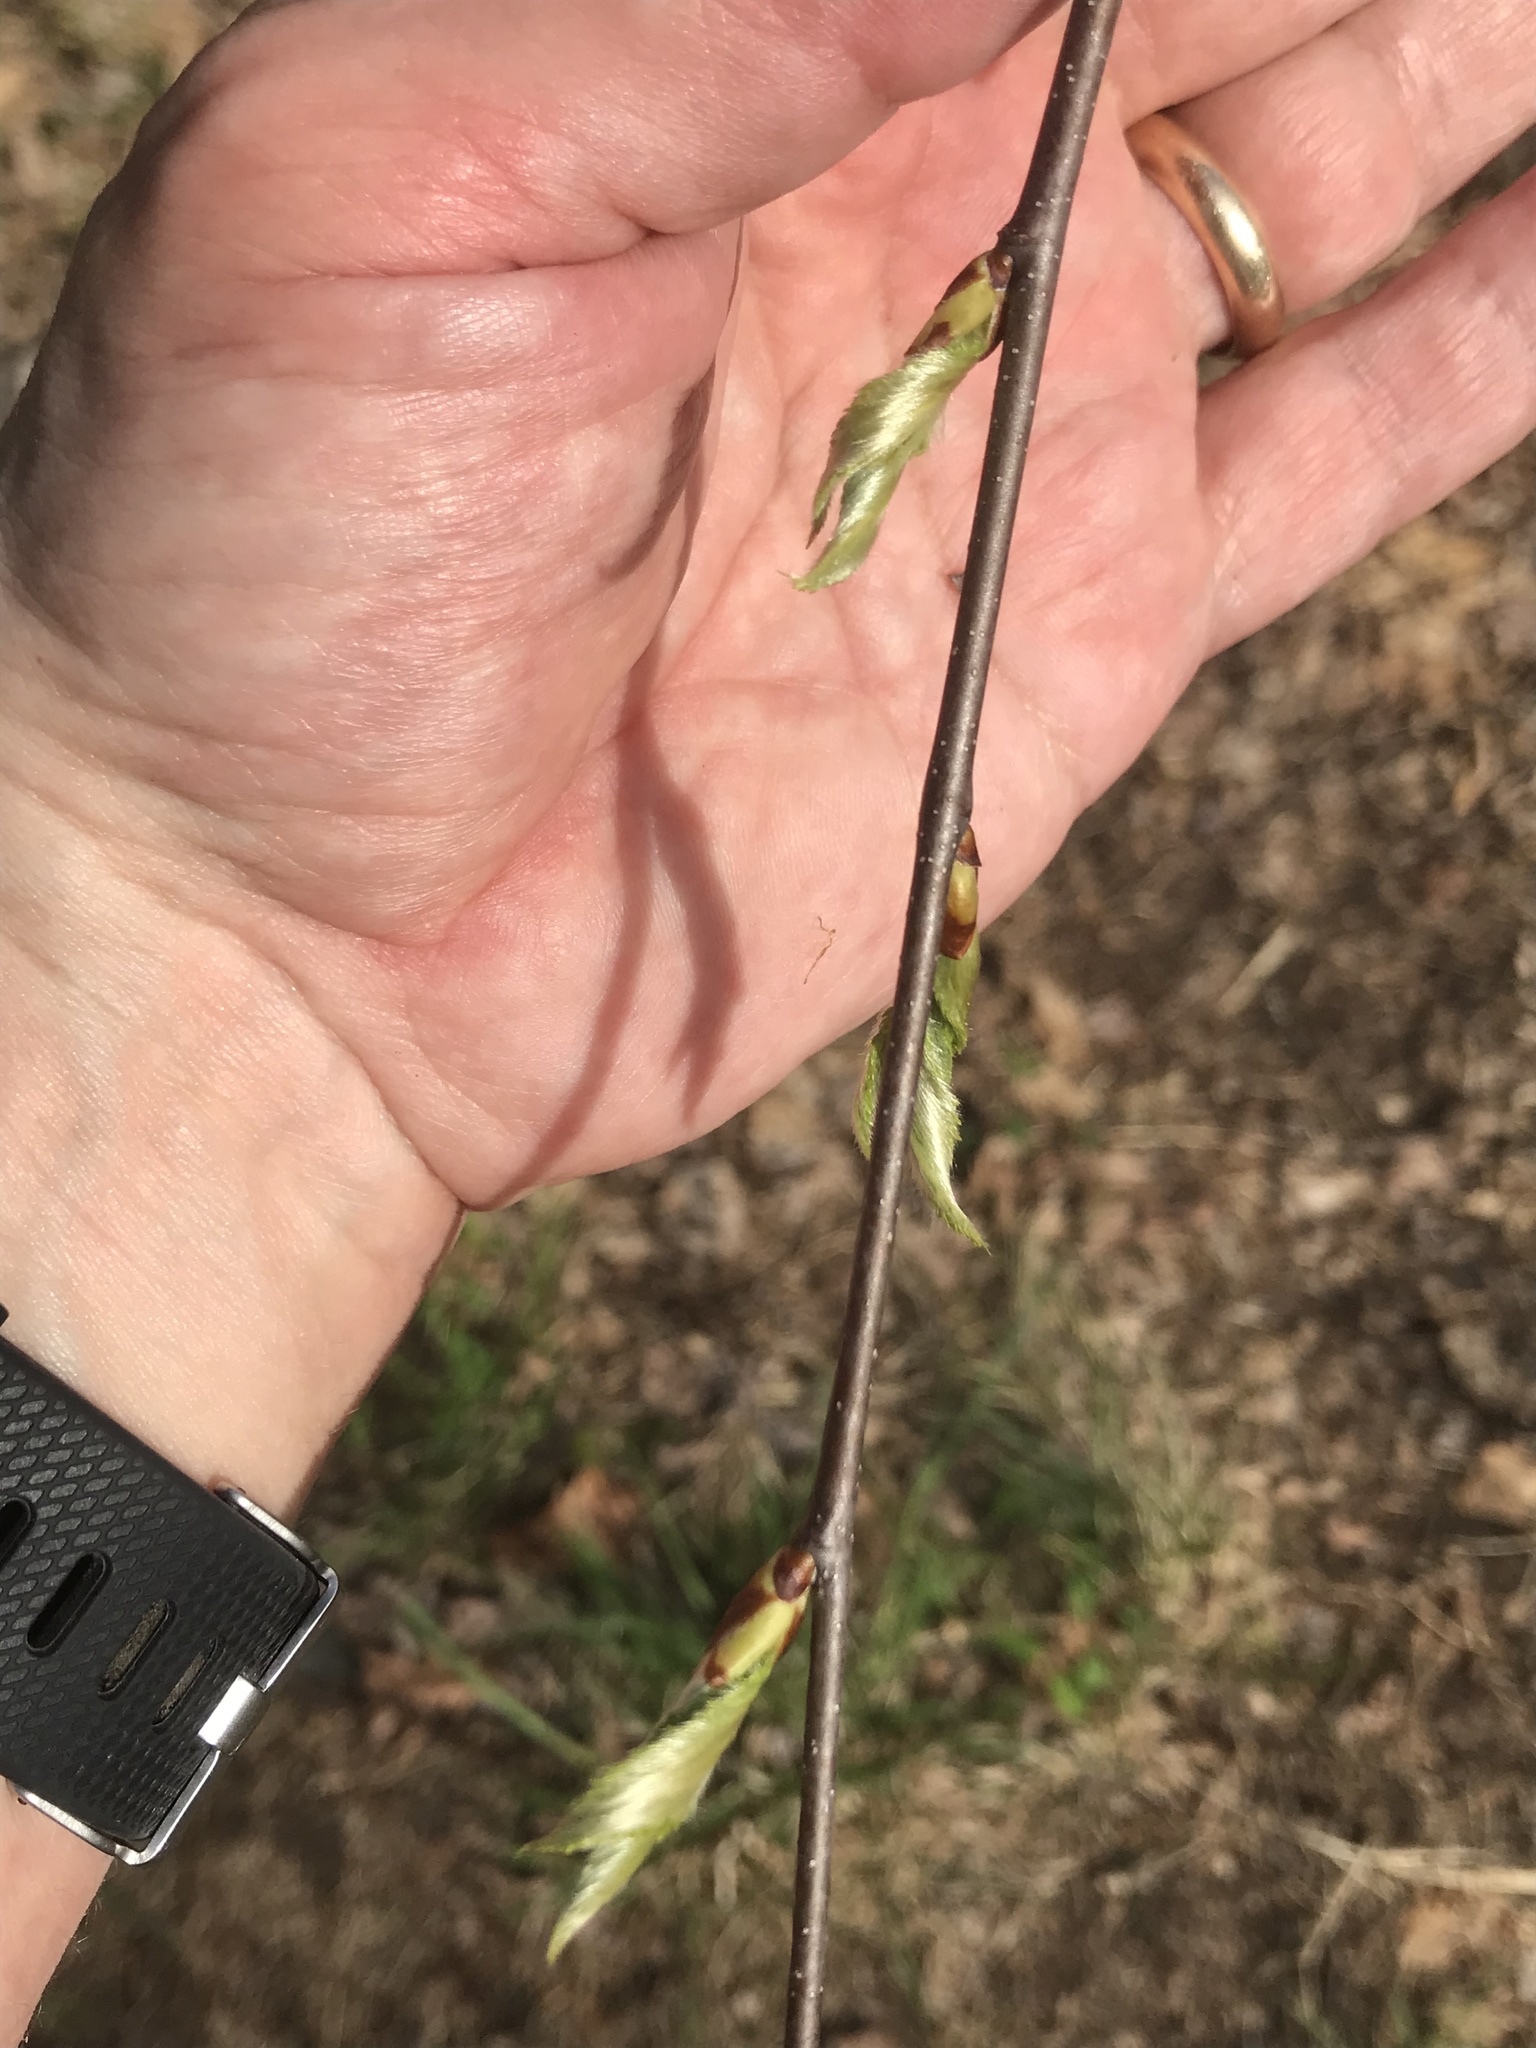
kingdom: Plantae
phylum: Tracheophyta
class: Magnoliopsida
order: Fagales
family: Betulaceae
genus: Betula
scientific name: Betula lenta
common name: Black birch
